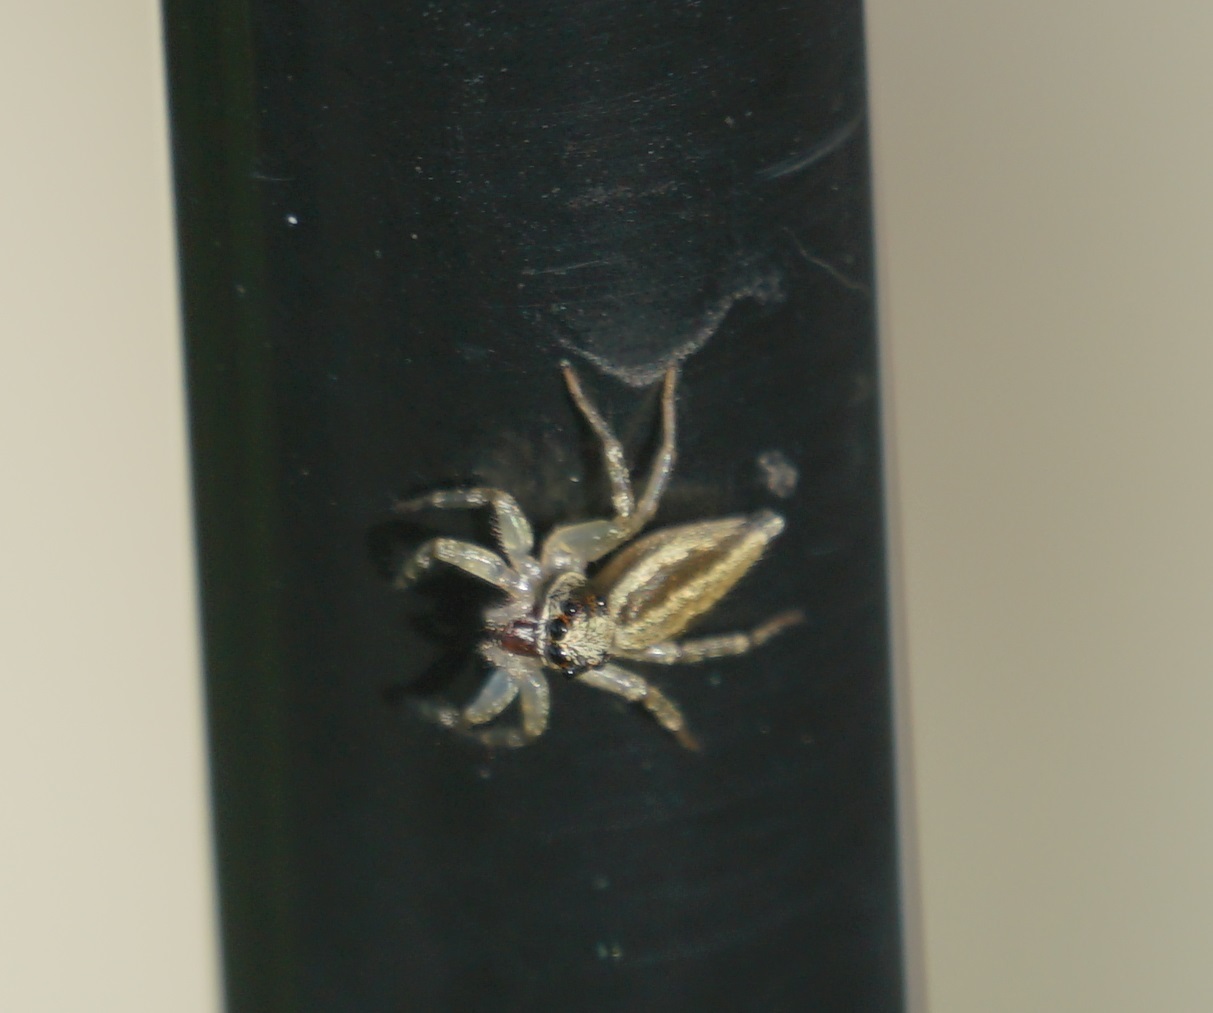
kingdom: Animalia
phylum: Arthropoda
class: Arachnida
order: Araneae
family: Salticidae
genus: Zenodorus
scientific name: Zenodorus swiftorum
